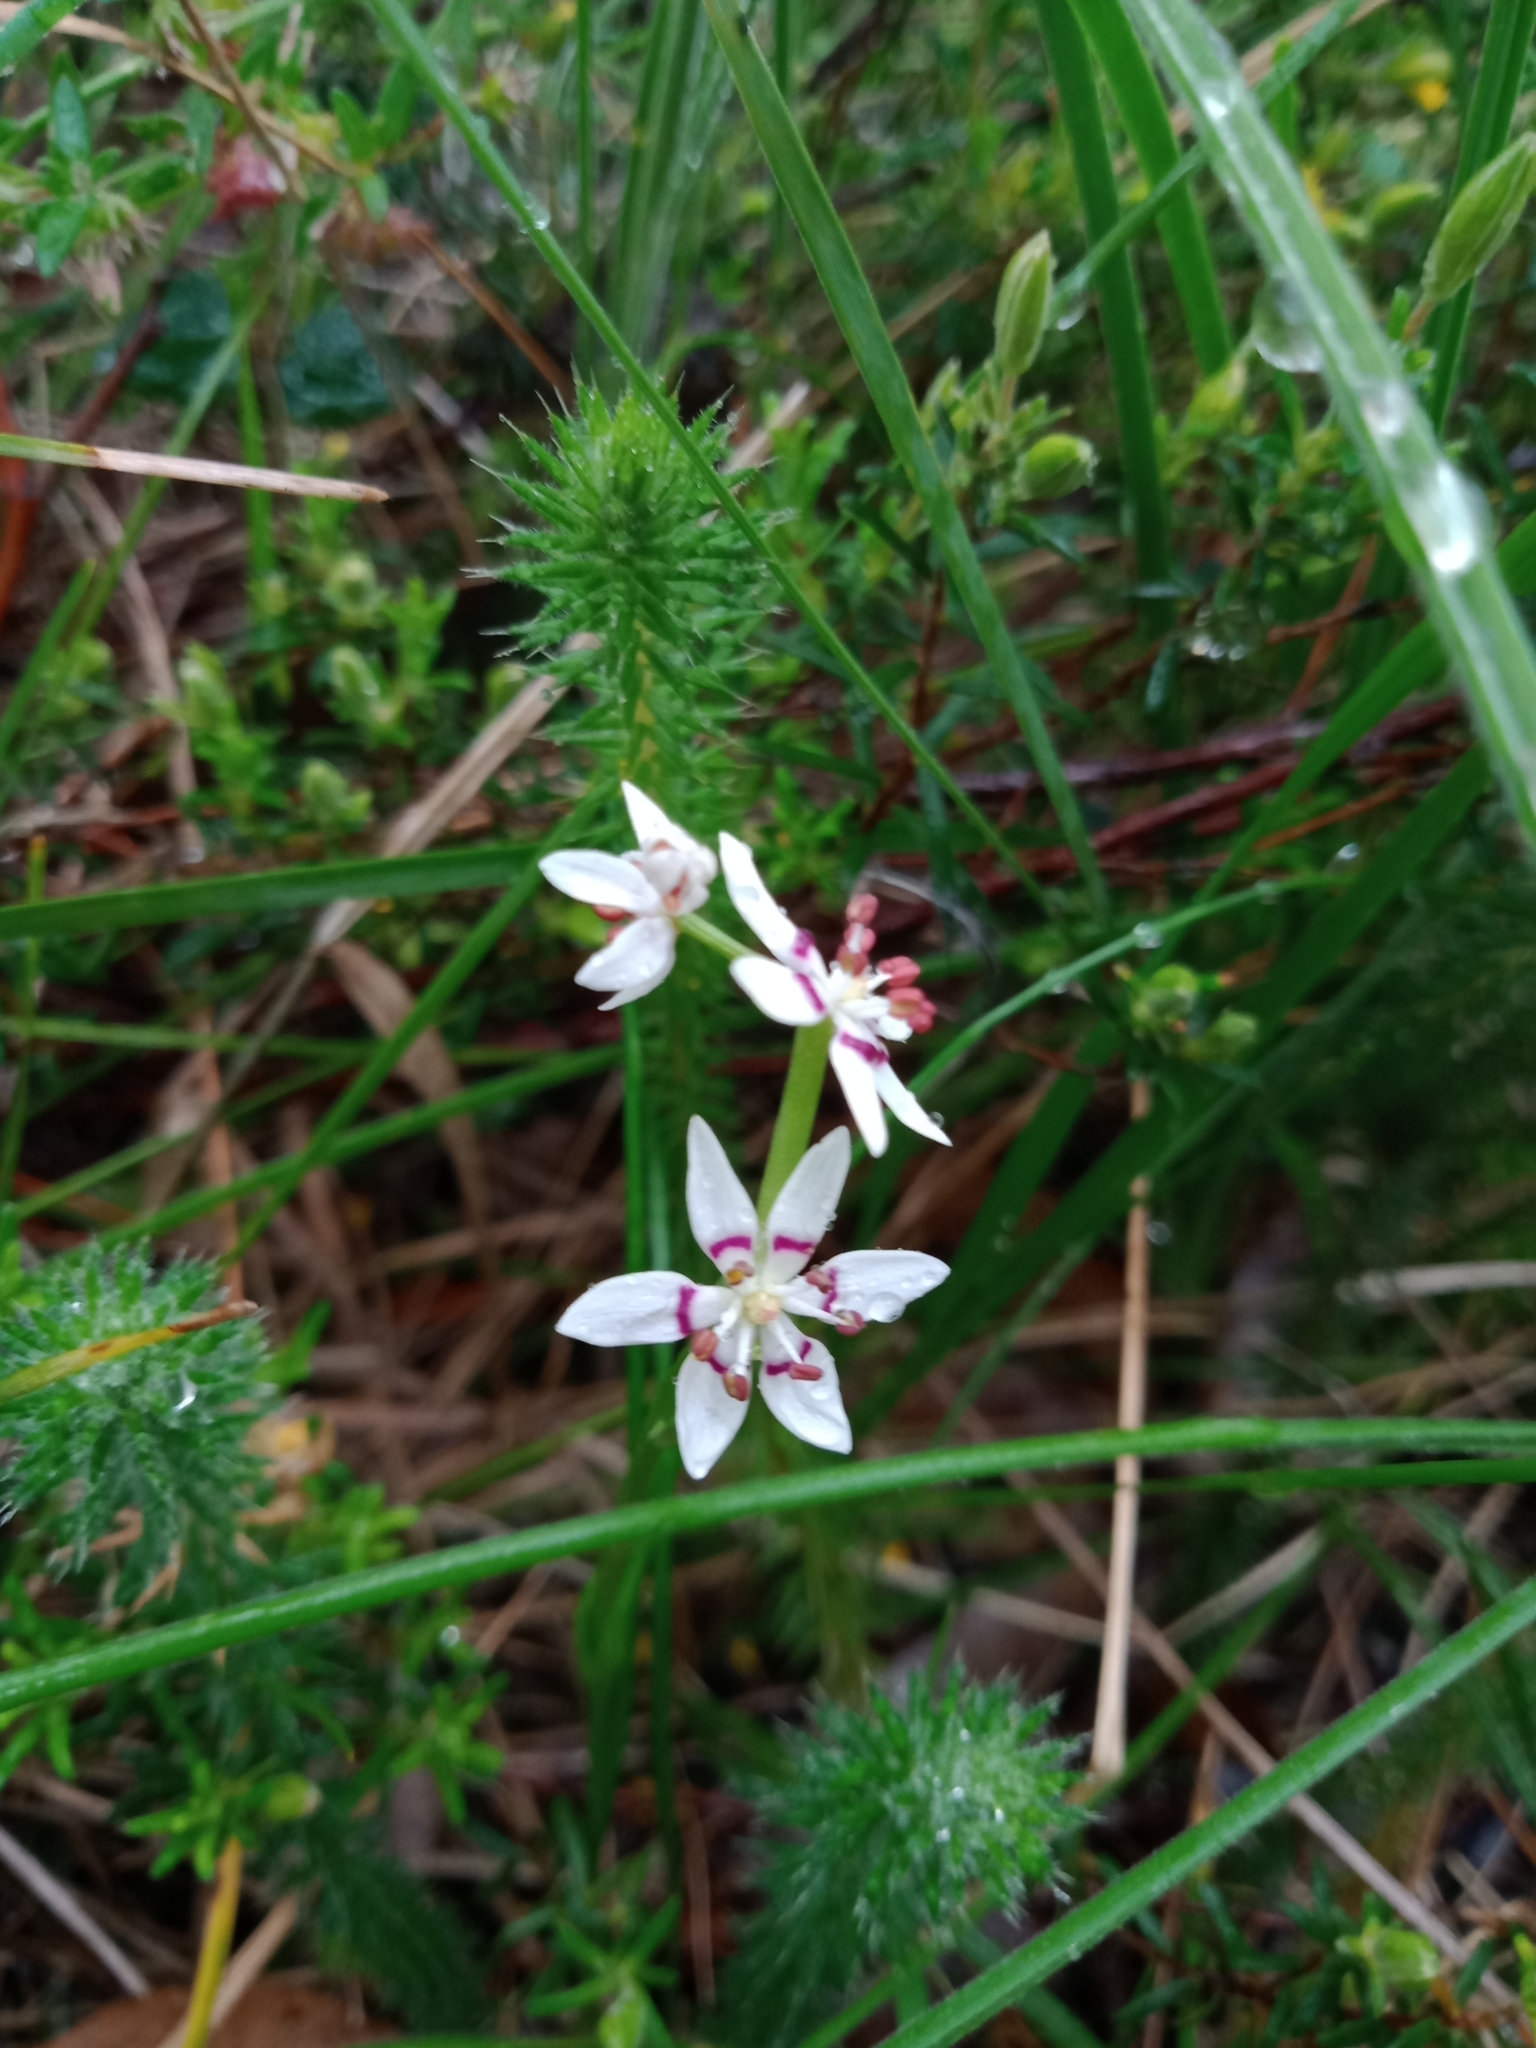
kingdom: Plantae
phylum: Tracheophyta
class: Liliopsida
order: Liliales
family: Colchicaceae
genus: Wurmbea
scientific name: Wurmbea dioica
